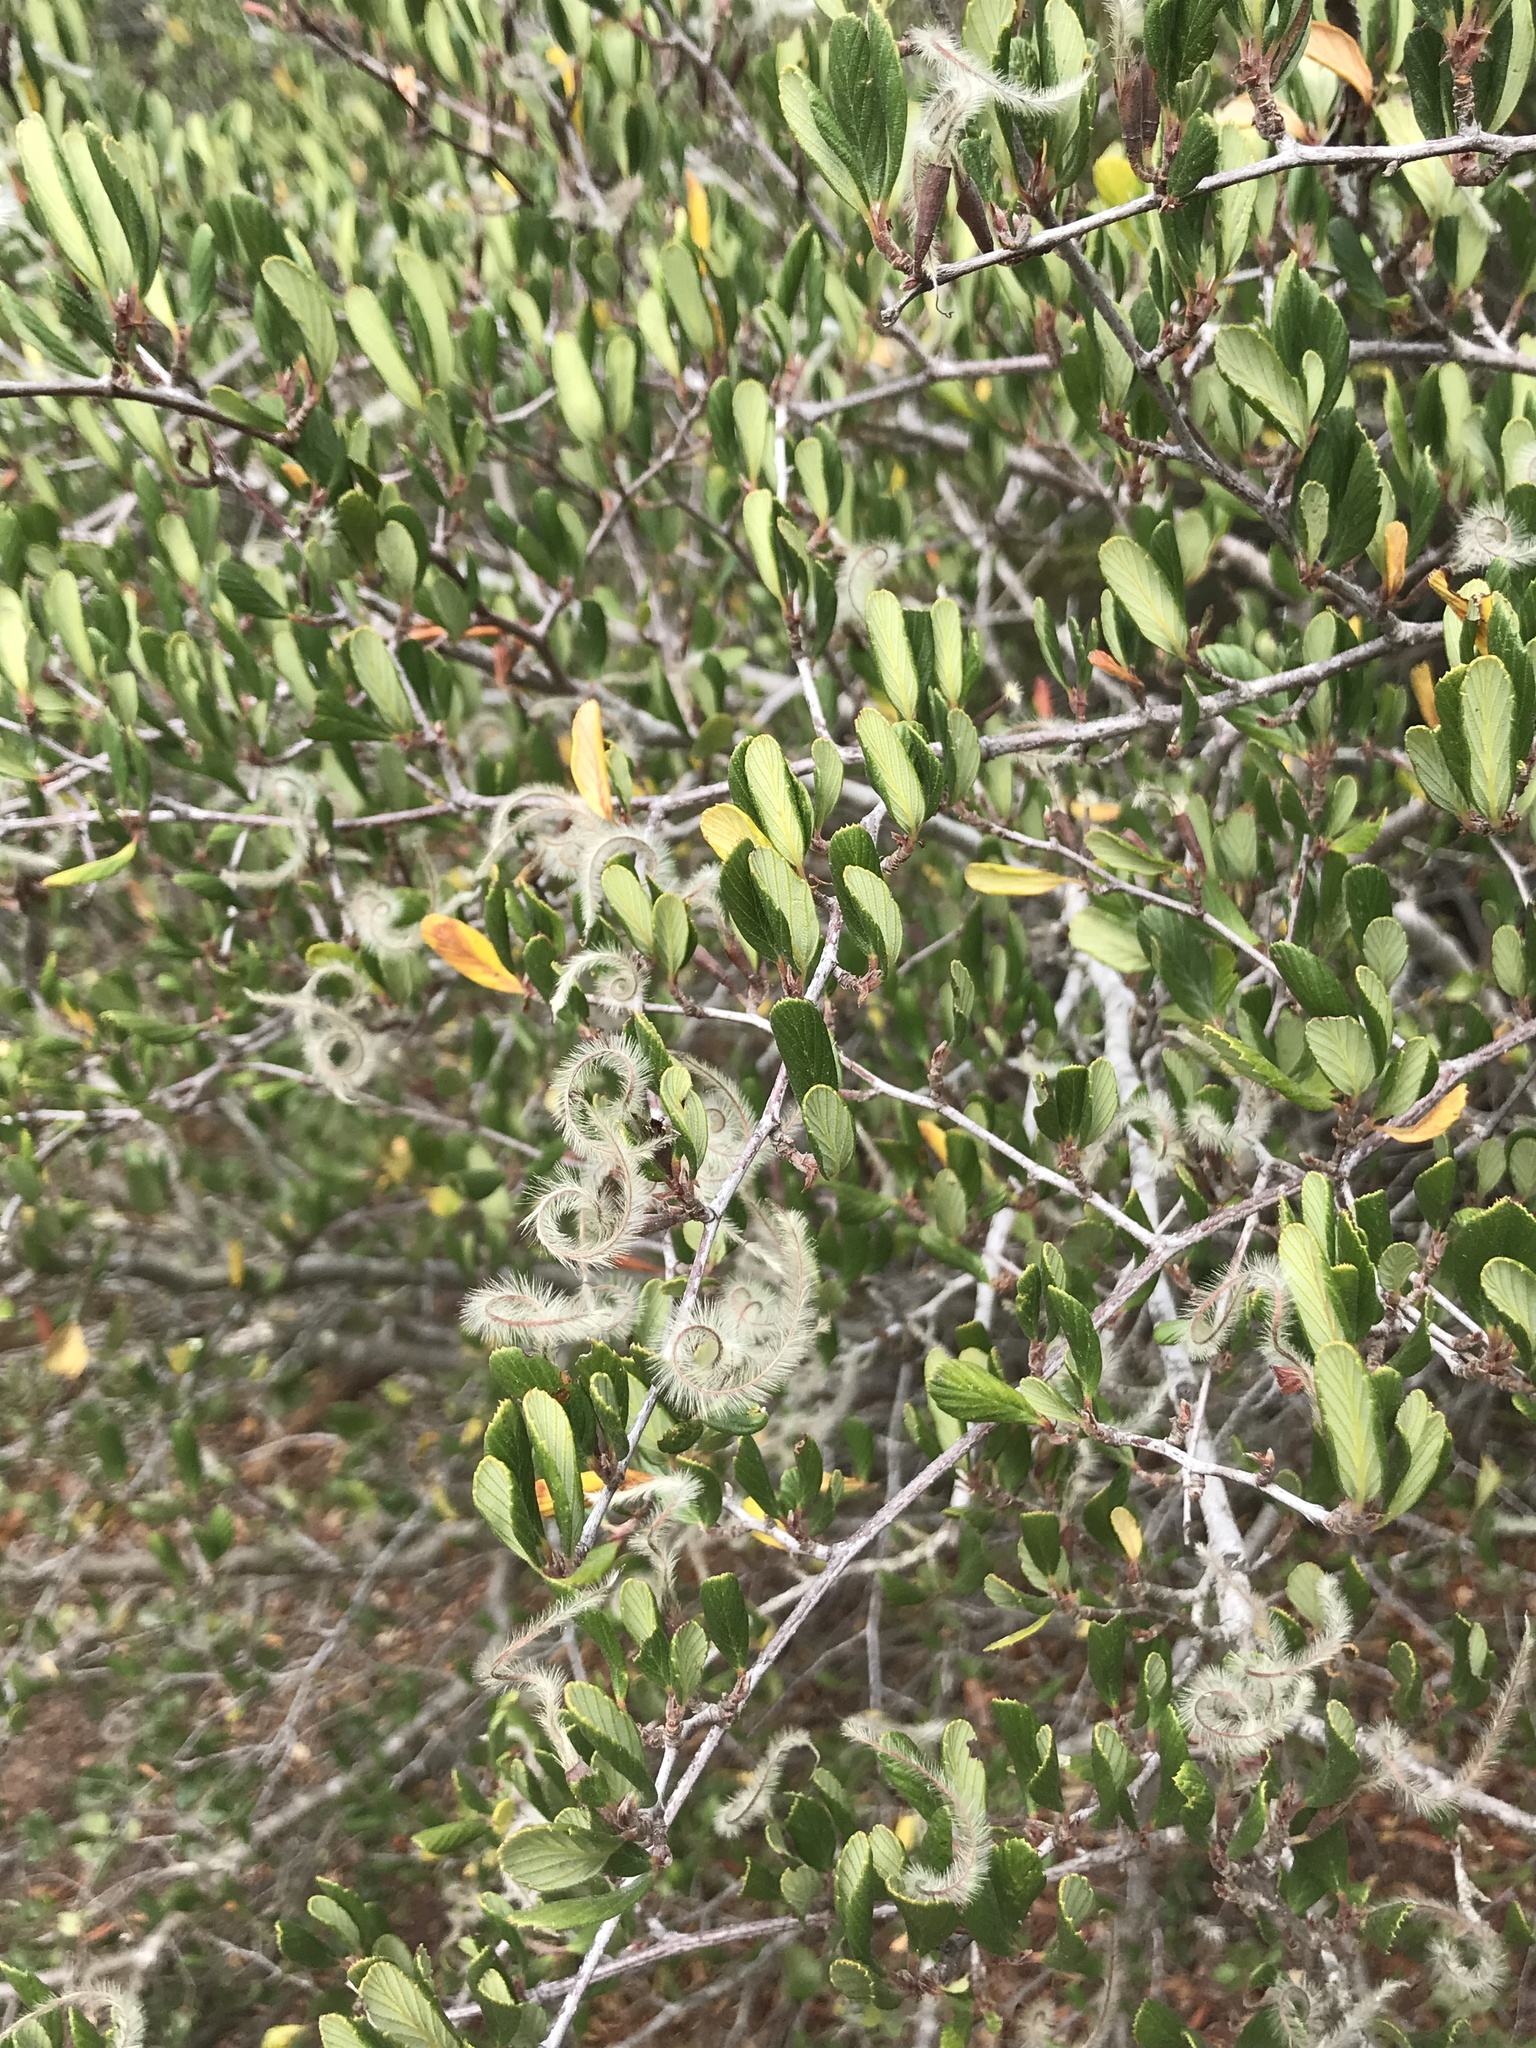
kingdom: Plantae
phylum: Tracheophyta
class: Magnoliopsida
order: Rosales
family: Rosaceae
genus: Cercocarpus
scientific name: Cercocarpus betuloides
